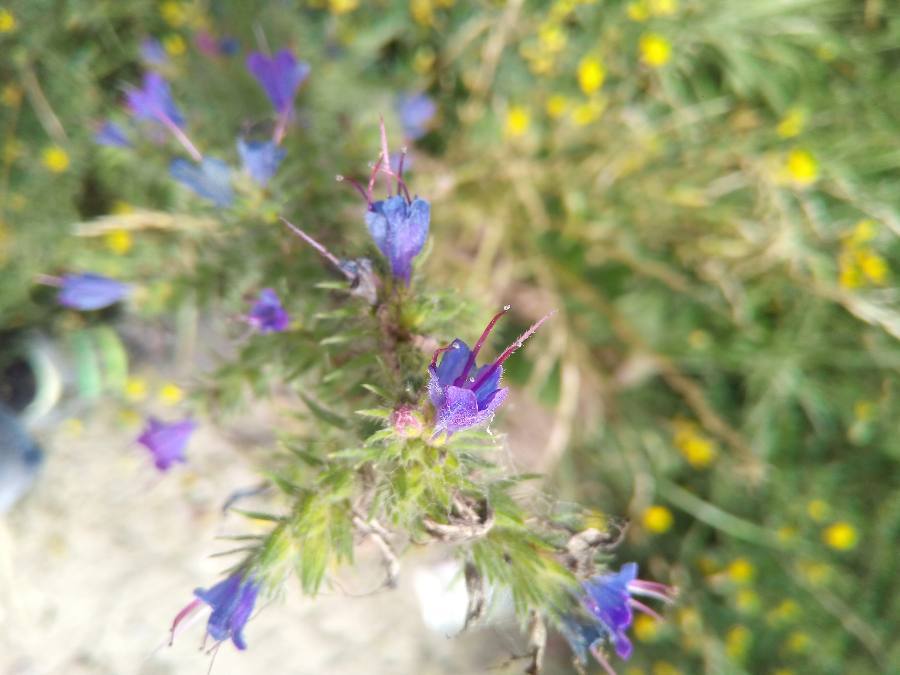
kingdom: Plantae
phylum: Tracheophyta
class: Magnoliopsida
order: Boraginales
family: Boraginaceae
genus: Echium
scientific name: Echium vulgare
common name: Common viper's bugloss
